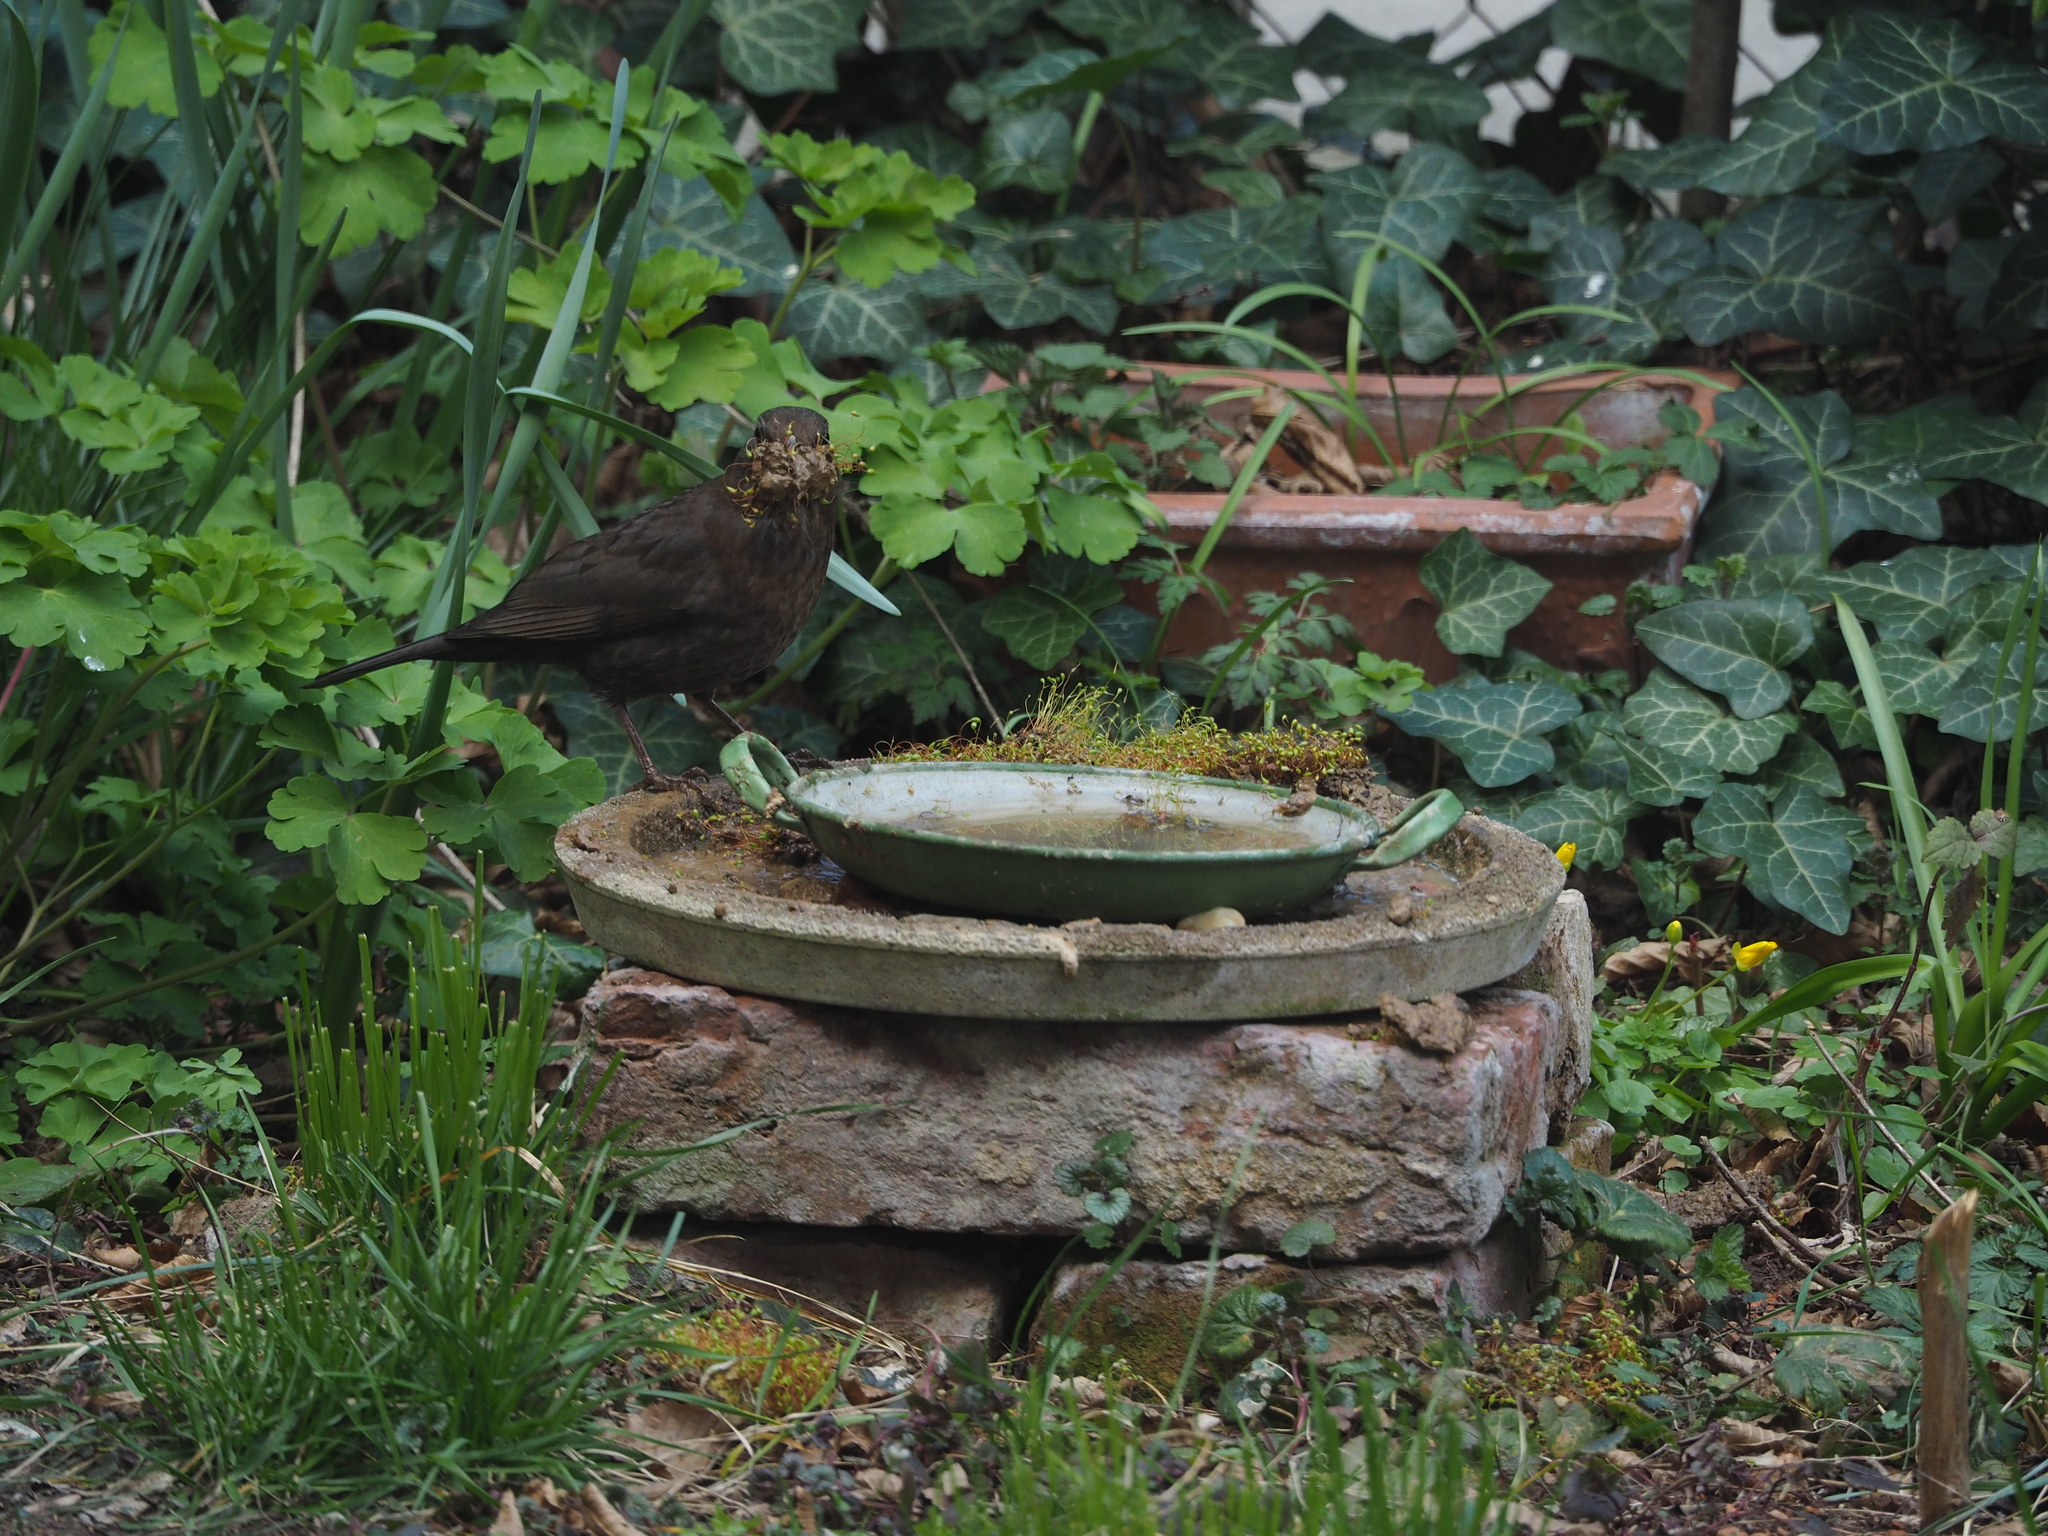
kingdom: Animalia
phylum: Chordata
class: Aves
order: Passeriformes
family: Turdidae
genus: Turdus
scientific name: Turdus merula
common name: Common blackbird
